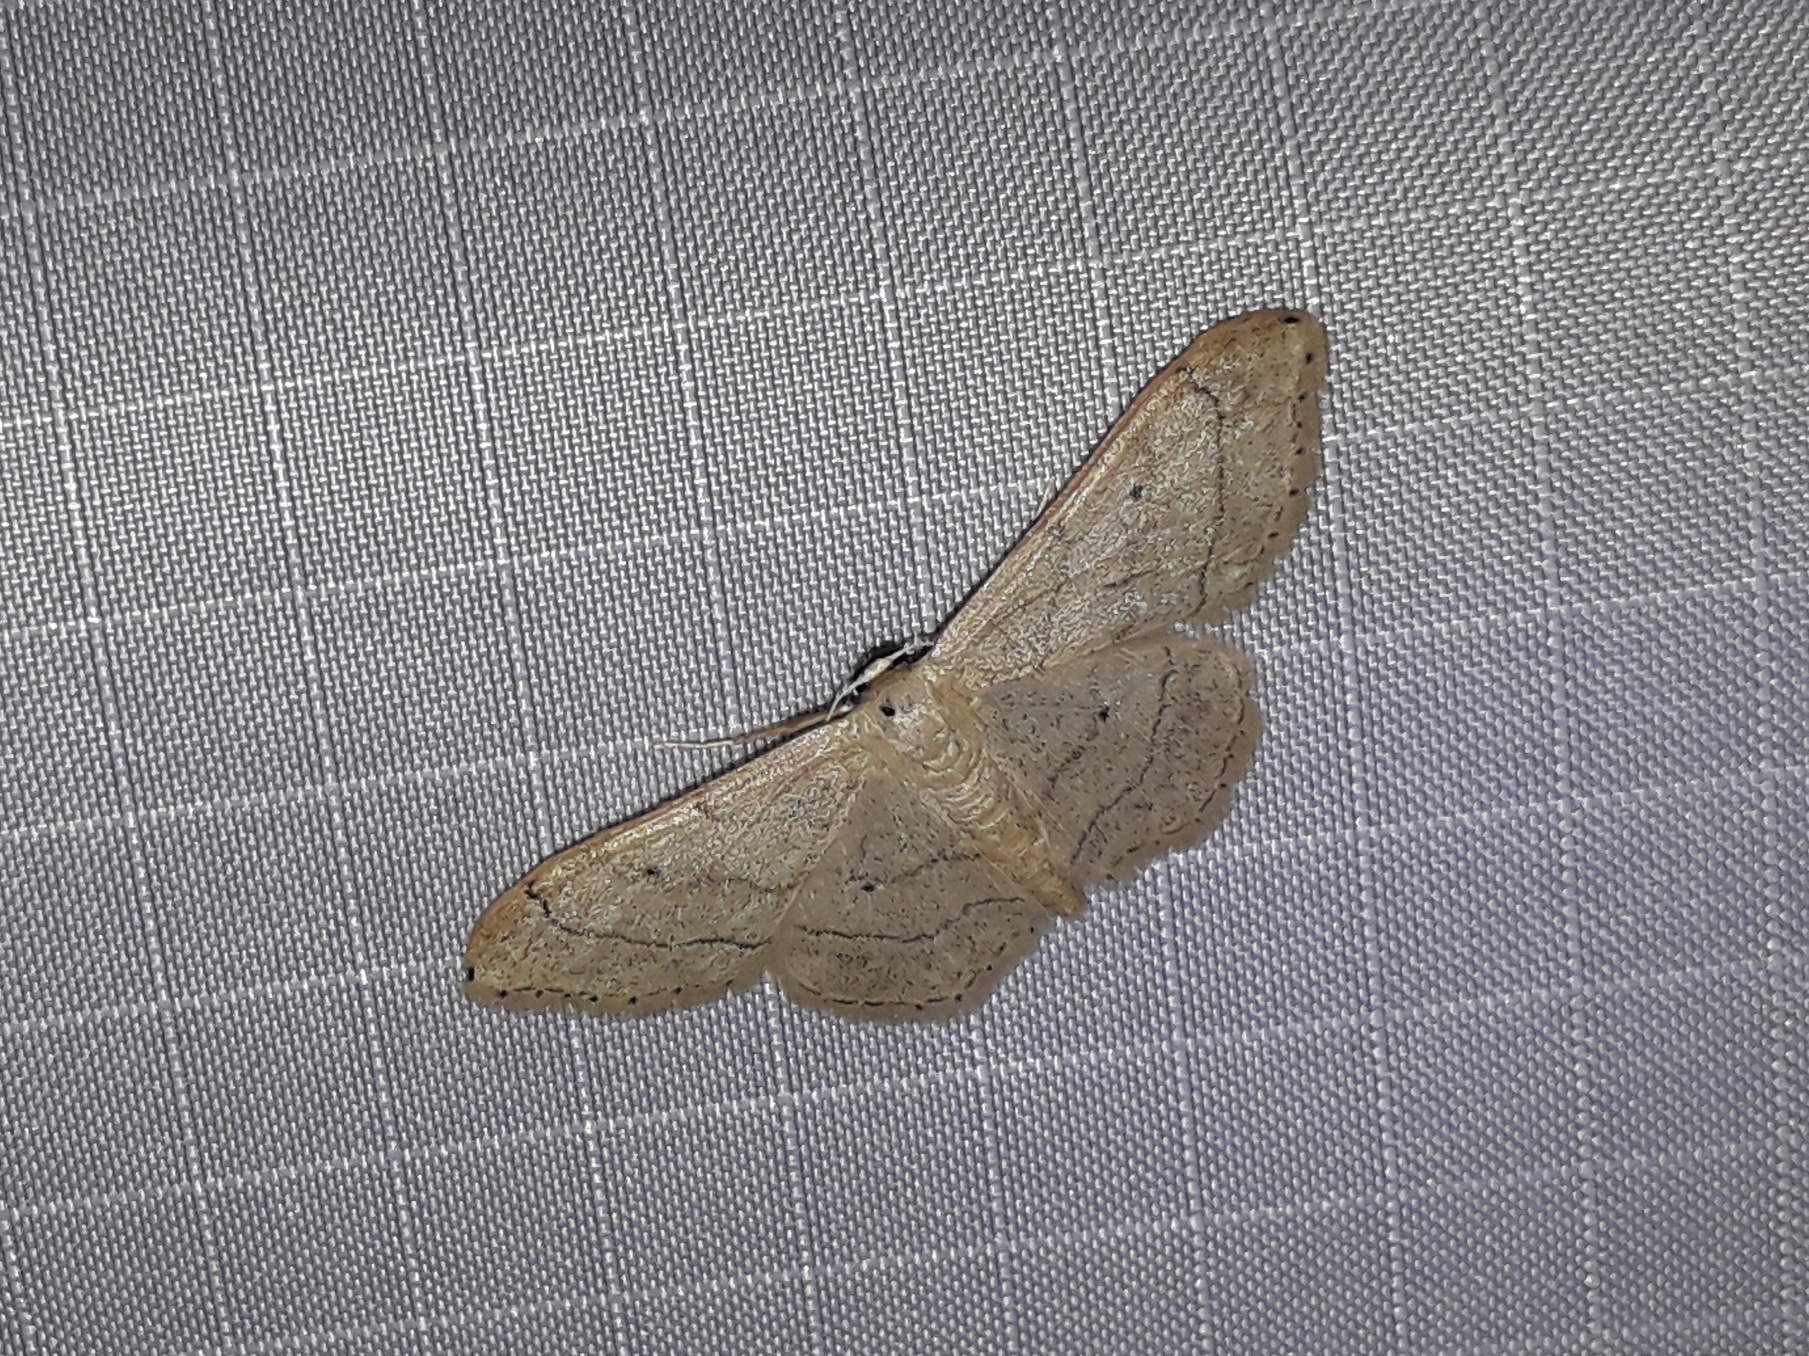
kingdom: Animalia
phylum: Arthropoda
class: Insecta
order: Lepidoptera
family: Geometridae
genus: Idaea
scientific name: Idaea aversata
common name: Riband wave
